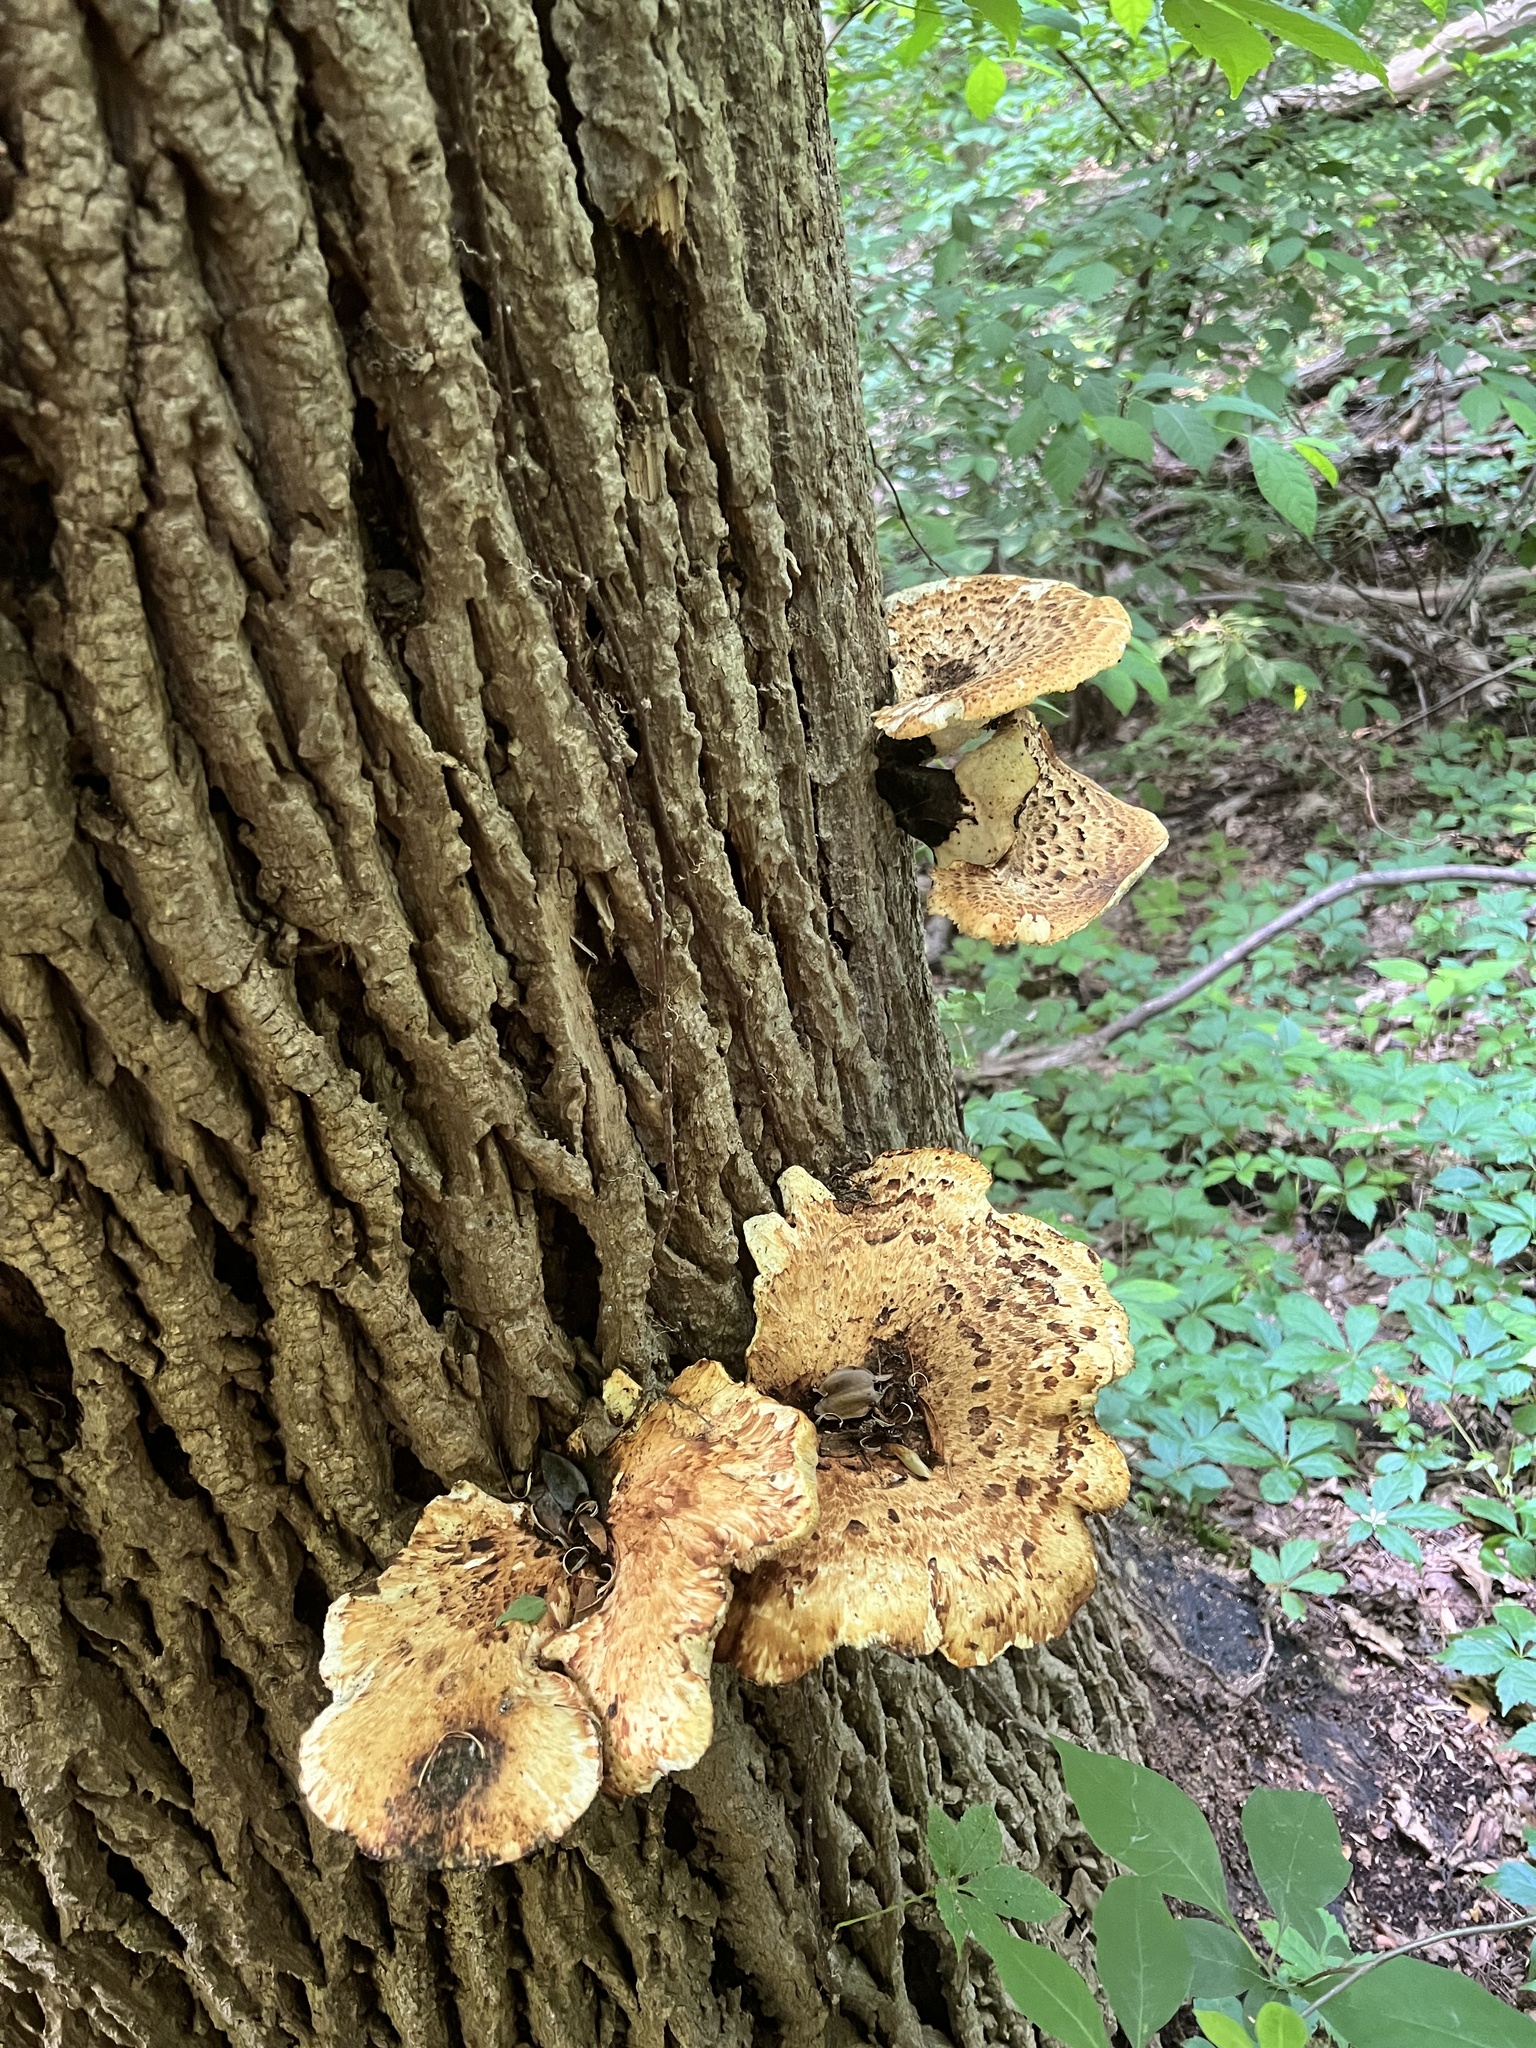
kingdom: Fungi
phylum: Basidiomycota
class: Agaricomycetes
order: Polyporales
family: Polyporaceae
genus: Cerioporus
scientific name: Cerioporus squamosus
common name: Dryad's saddle
